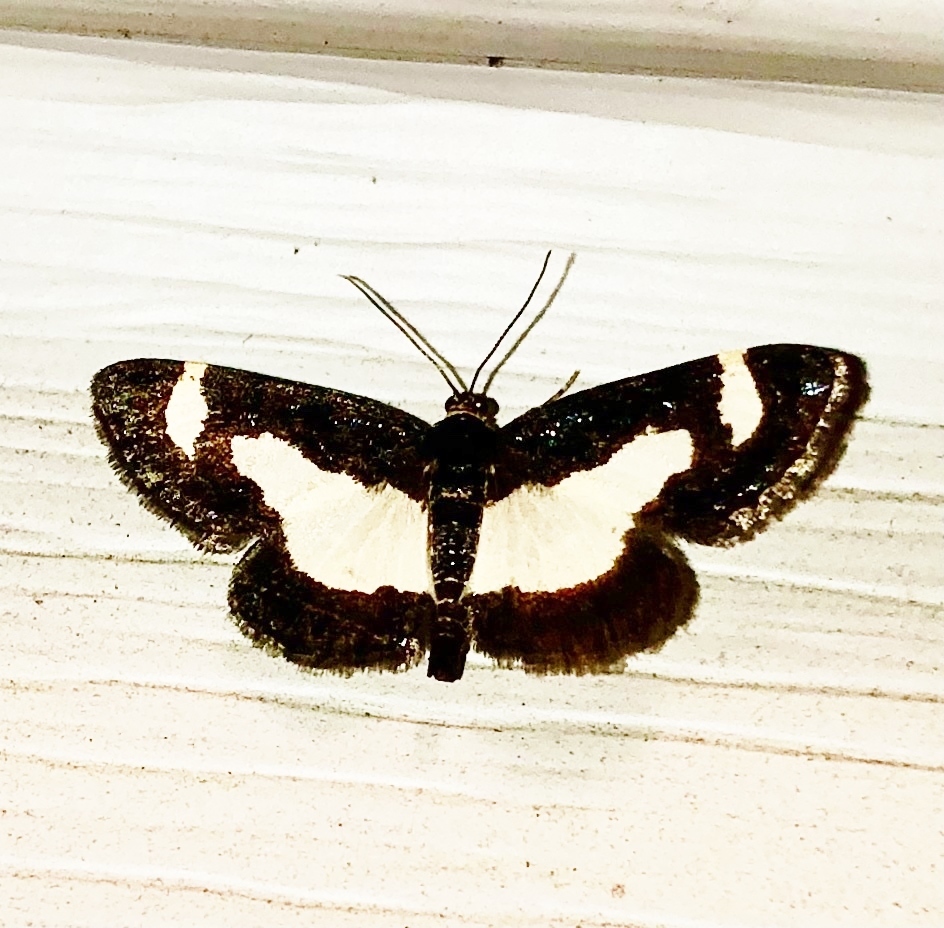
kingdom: Animalia
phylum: Arthropoda
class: Insecta
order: Lepidoptera
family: Geometridae
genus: Heliomata
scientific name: Heliomata cycladata
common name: Common spring moth
